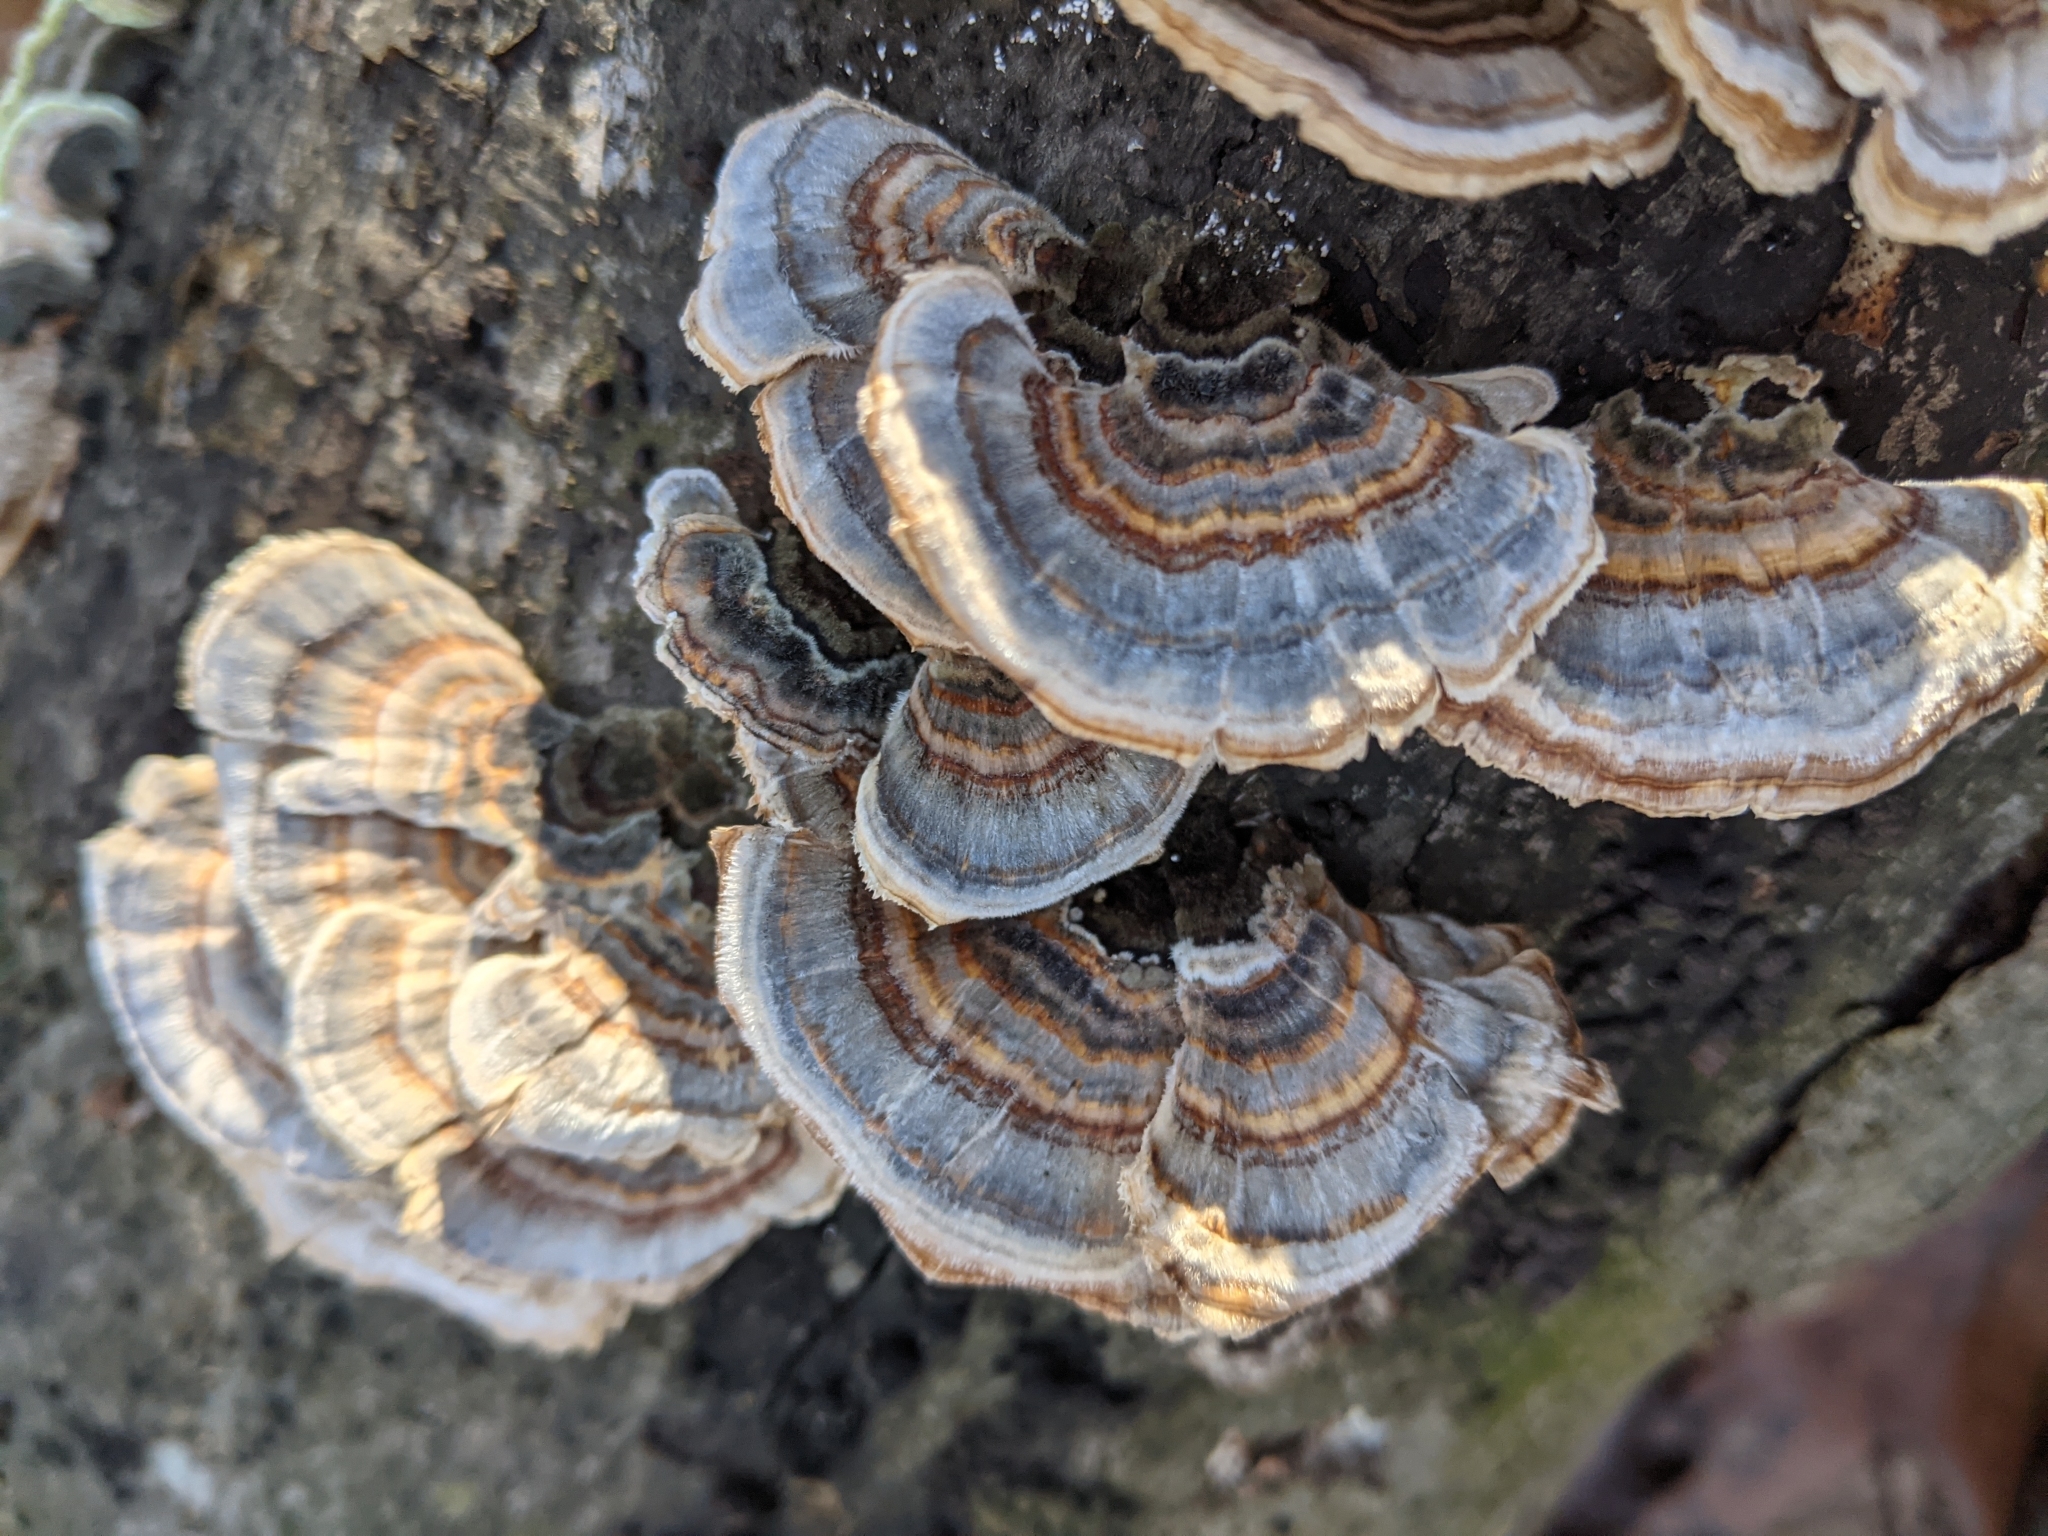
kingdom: Fungi
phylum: Basidiomycota
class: Agaricomycetes
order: Polyporales
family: Polyporaceae
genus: Trametes
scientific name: Trametes versicolor
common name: Turkeytail
